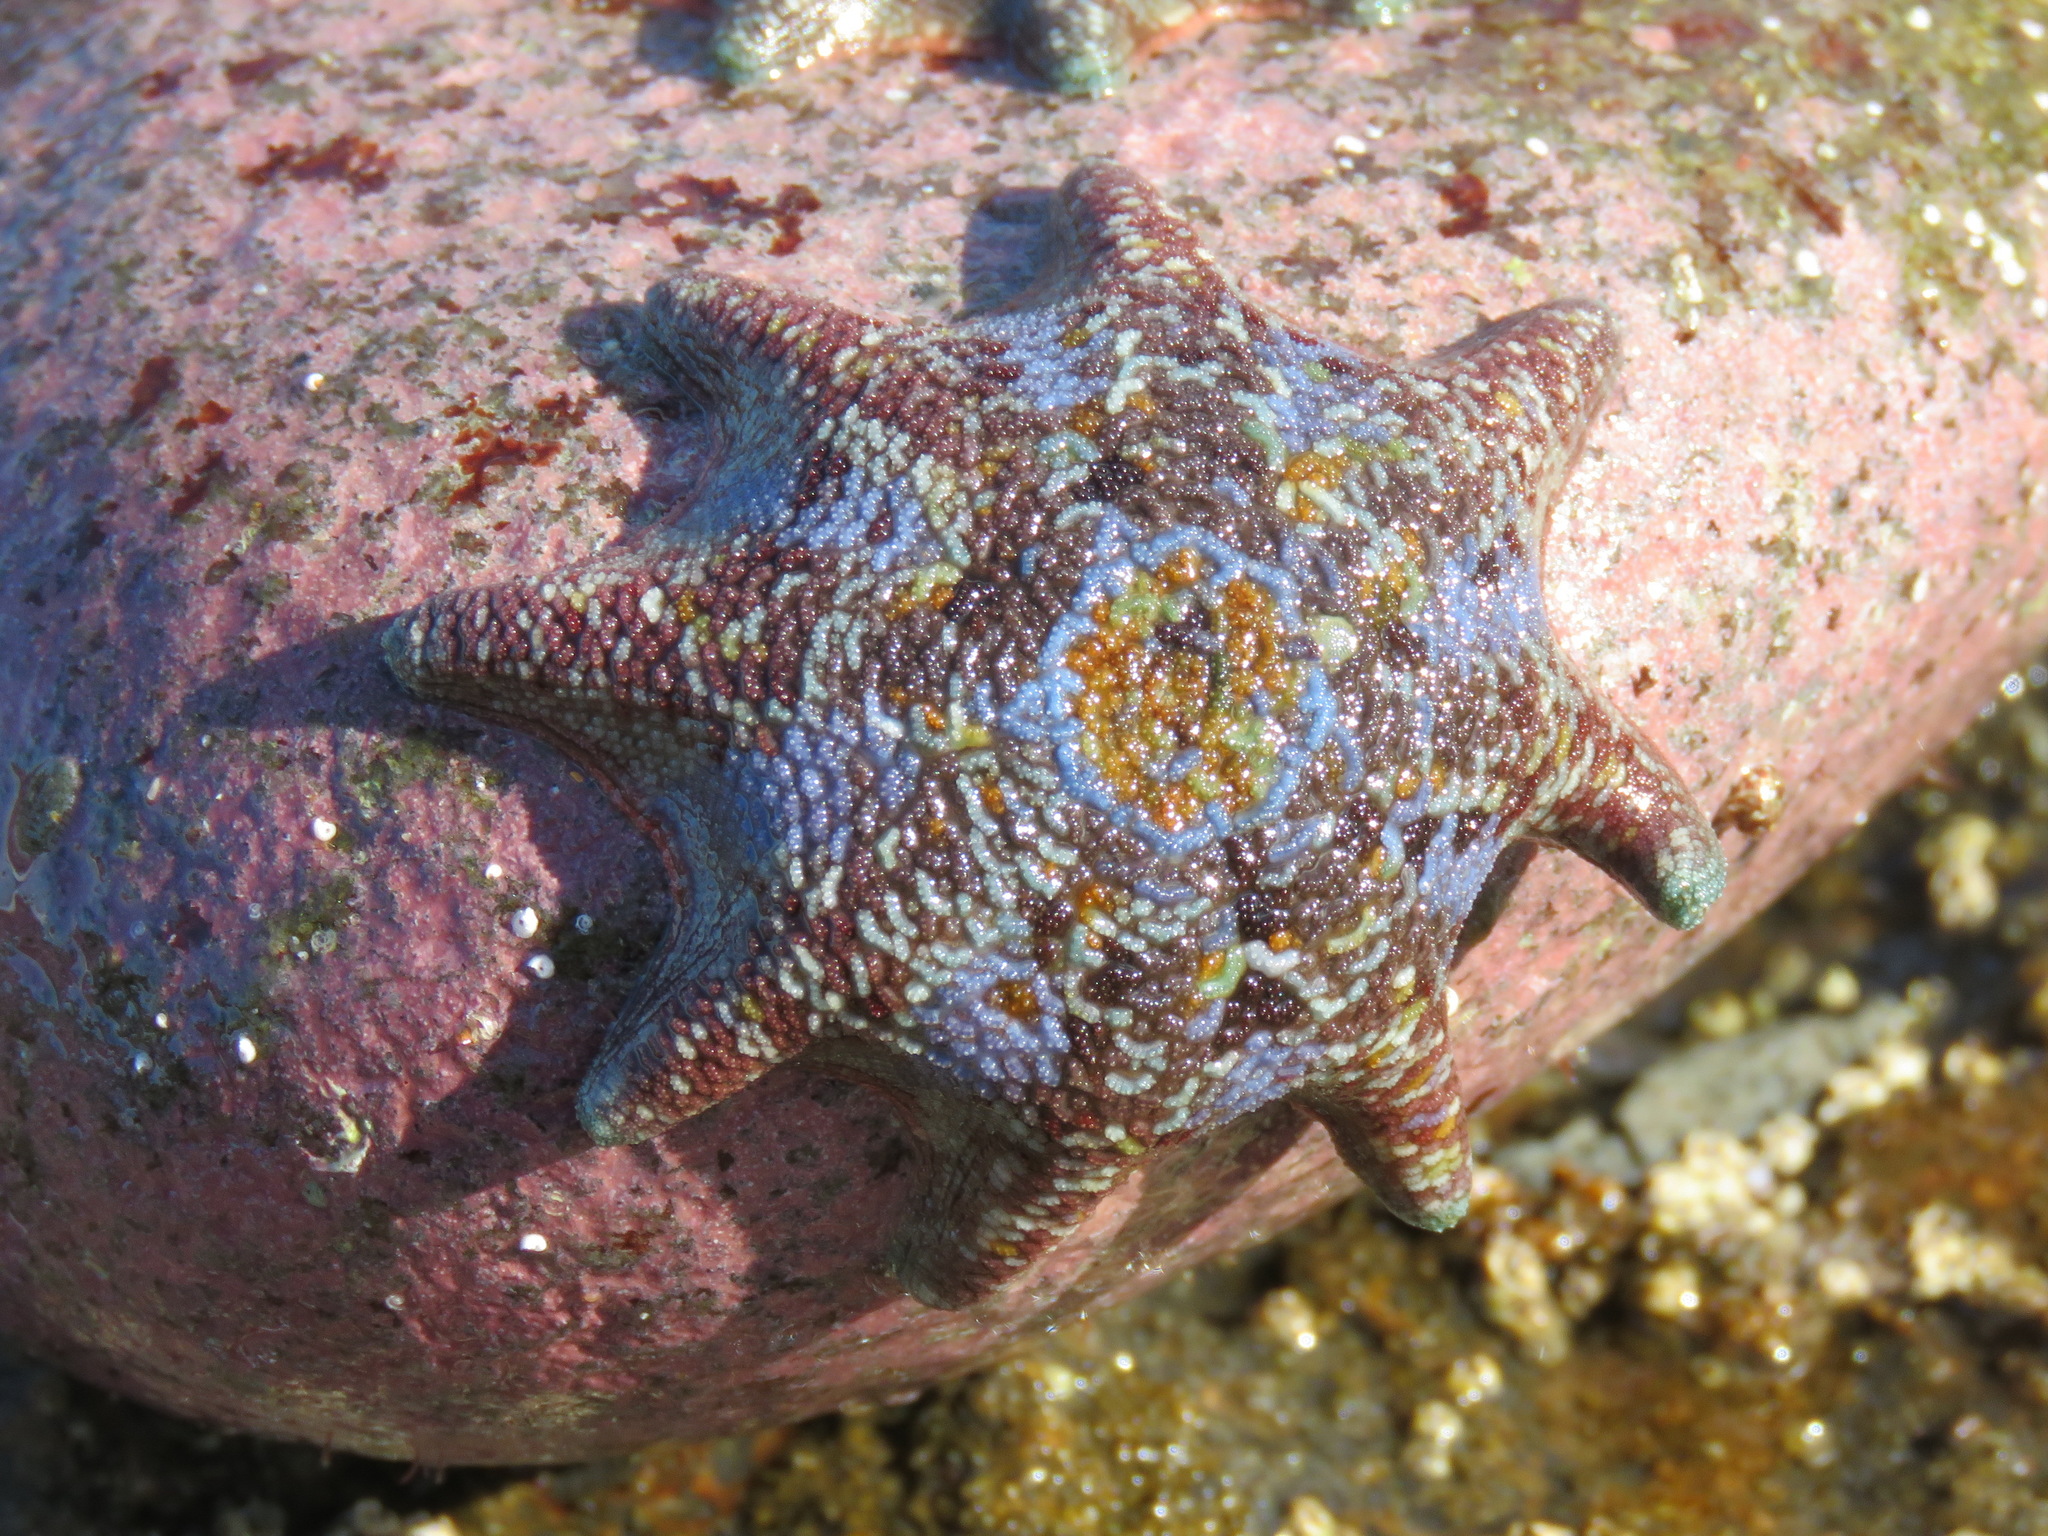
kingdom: Animalia
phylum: Echinodermata
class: Asteroidea
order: Valvatida
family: Asterinidae
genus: Meridiastra
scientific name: Meridiastra calcar
